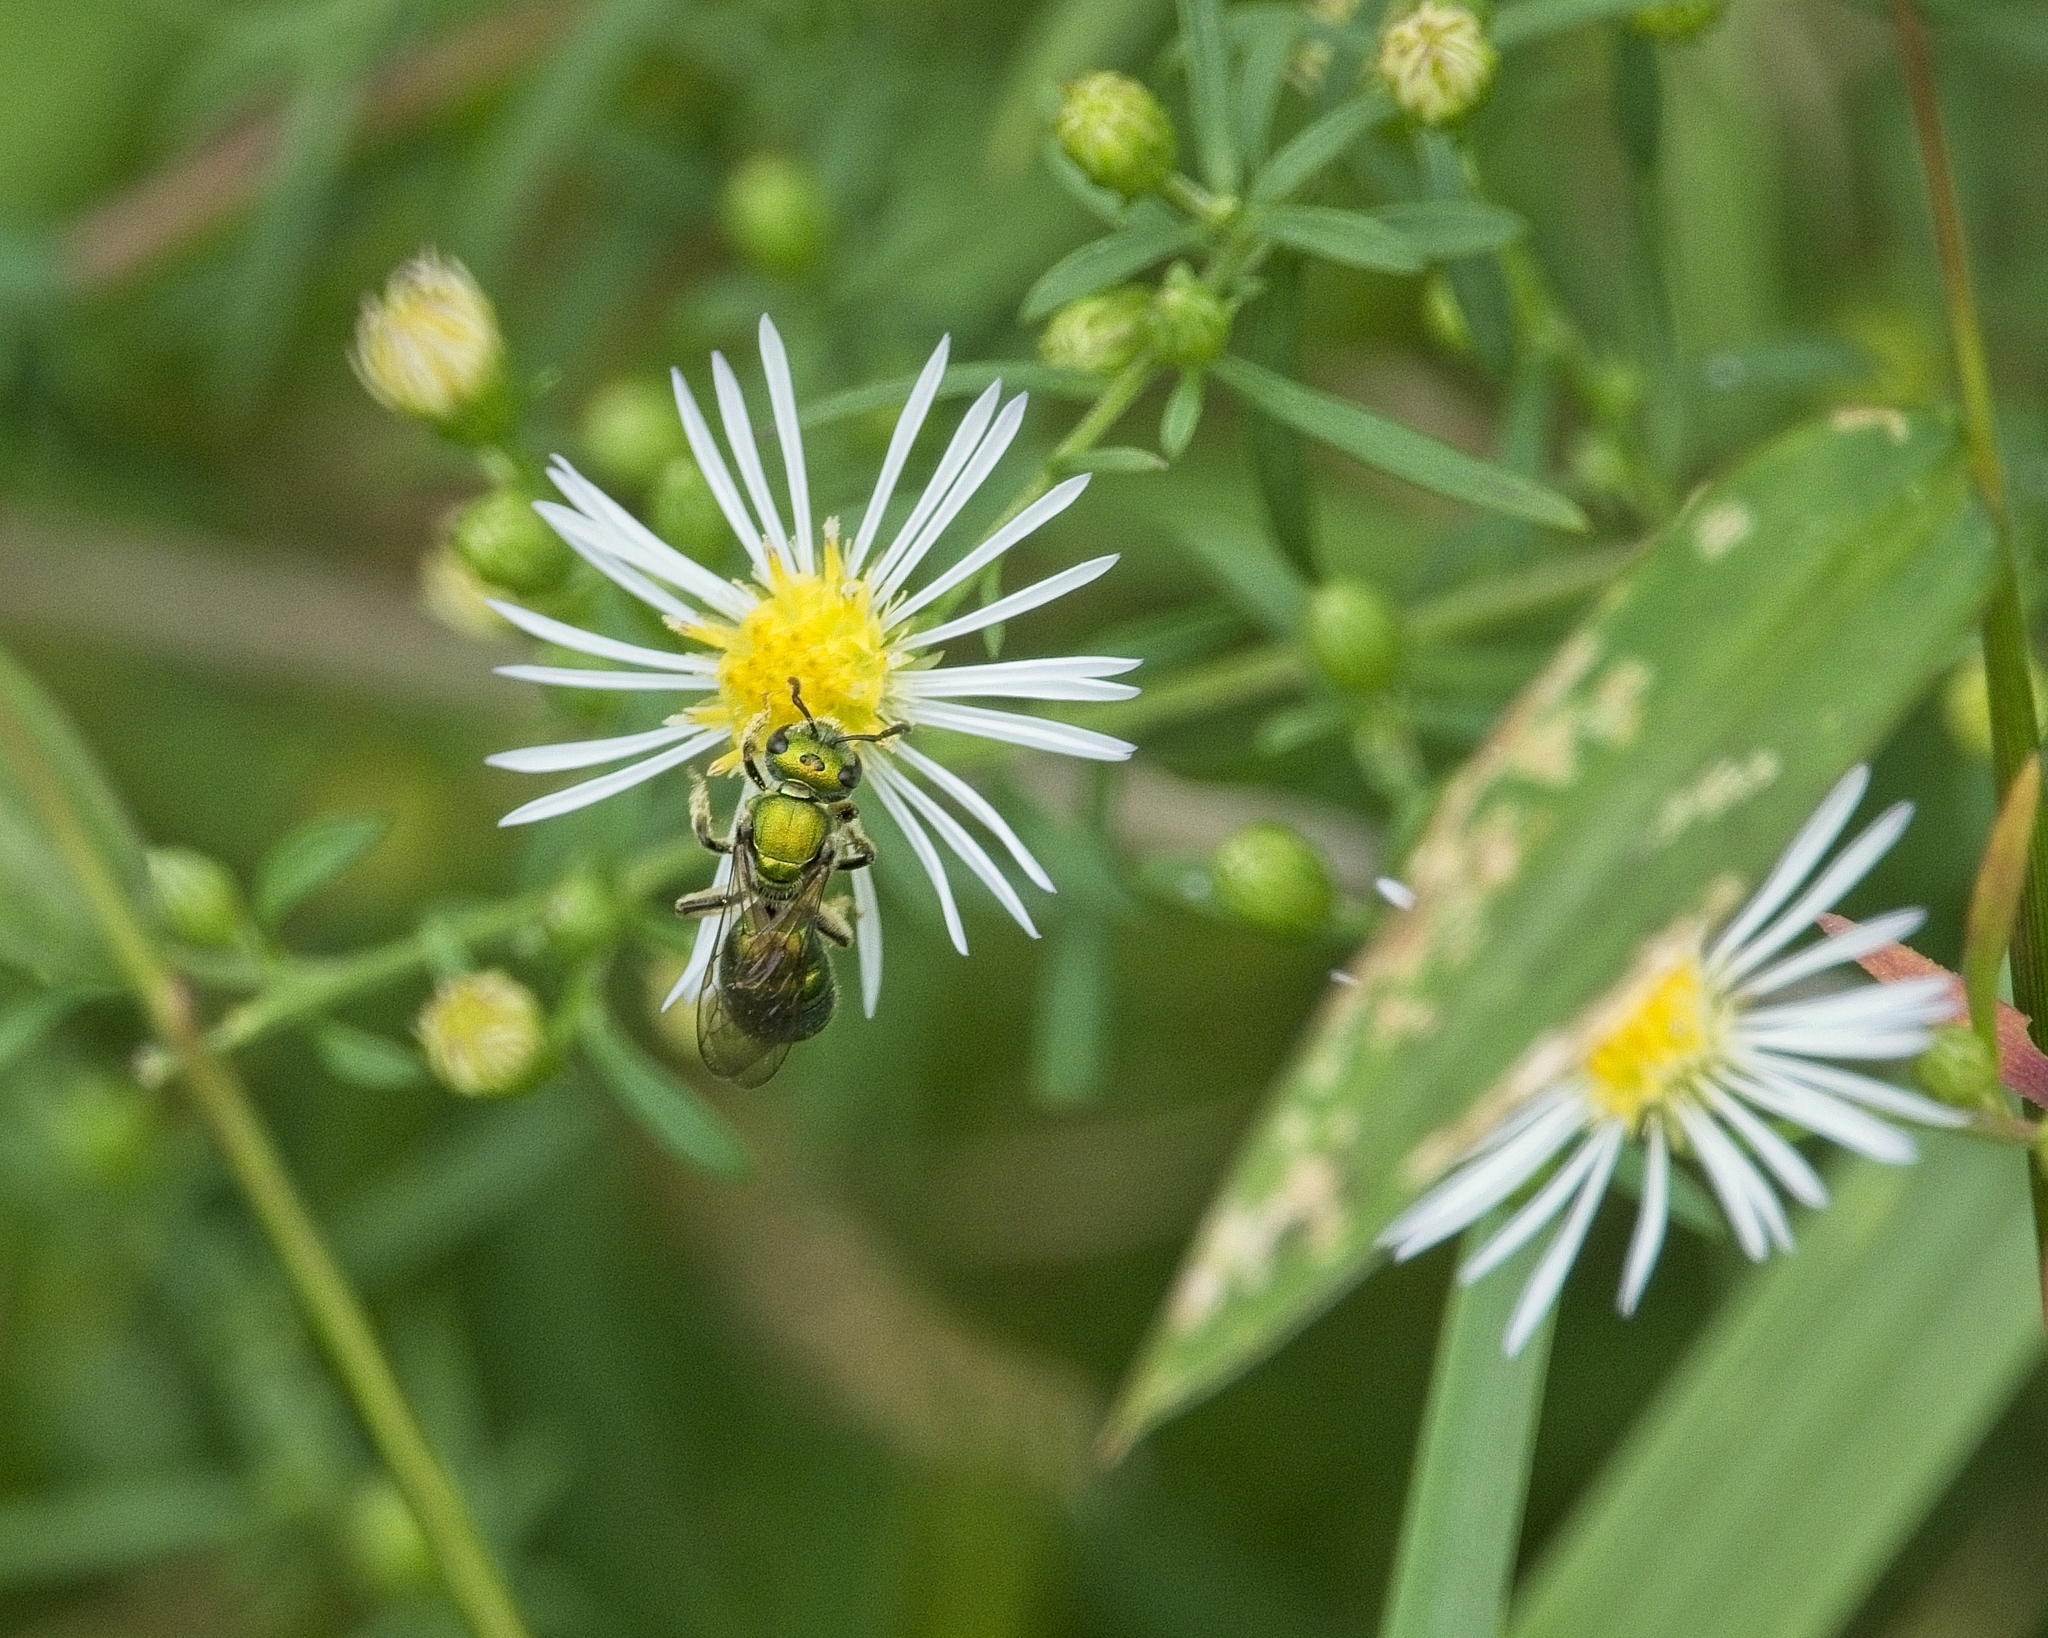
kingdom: Animalia
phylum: Arthropoda
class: Insecta
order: Hymenoptera
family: Halictidae
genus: Augochlora
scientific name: Augochlora pura
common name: Pure green sweat bee
